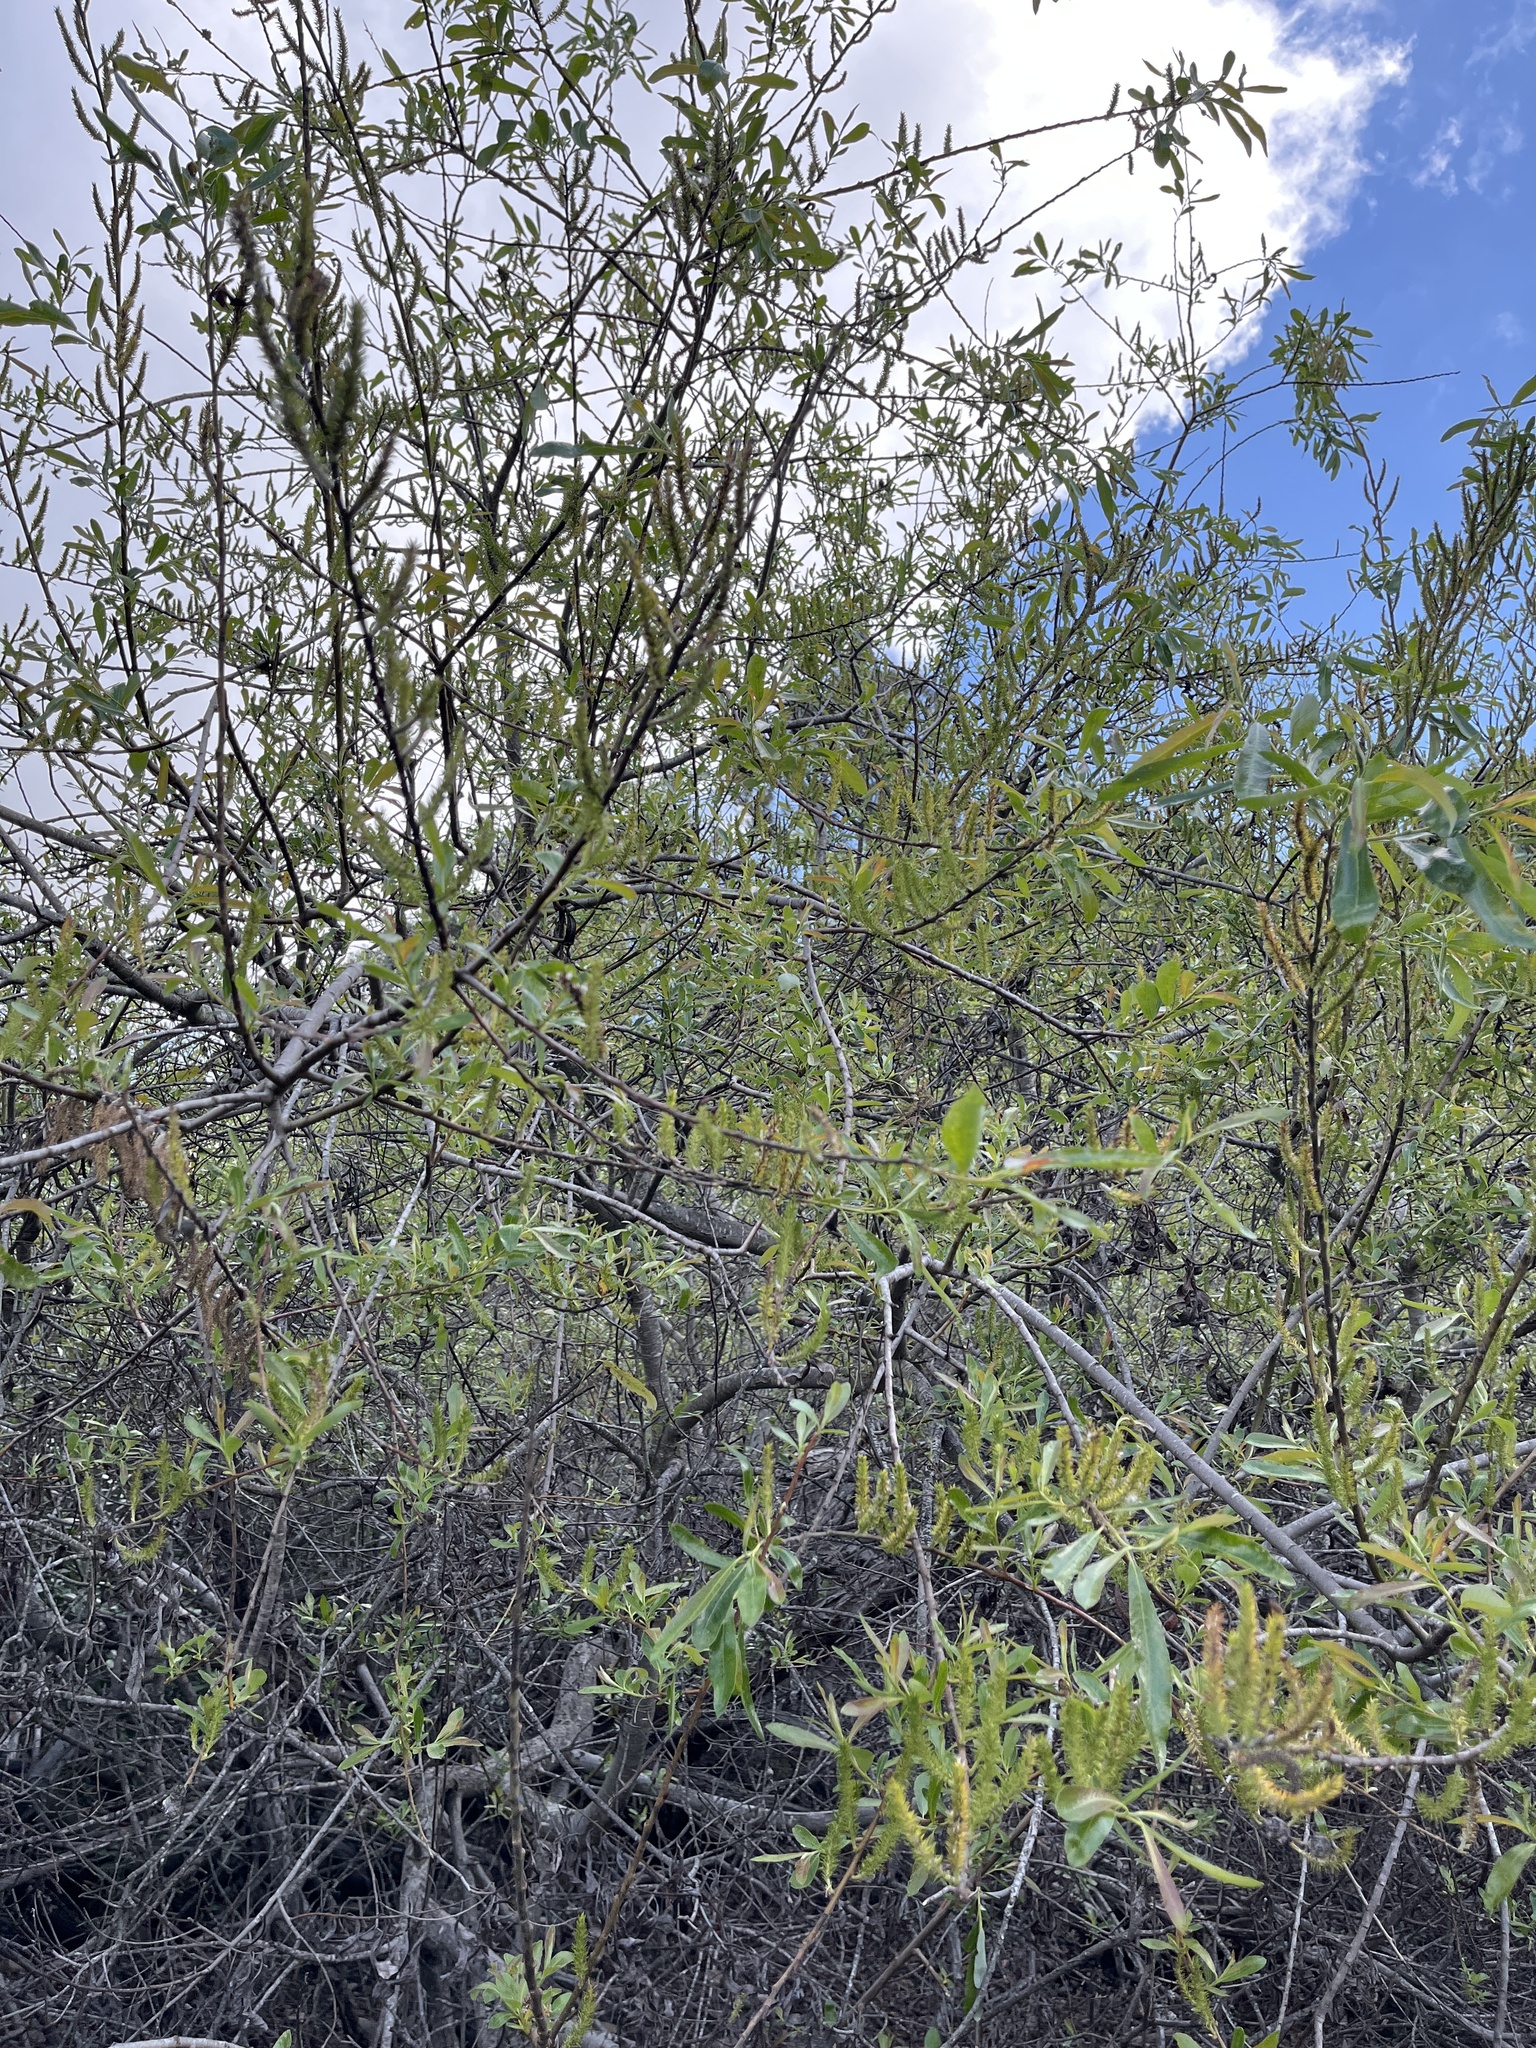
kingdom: Plantae
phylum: Tracheophyta
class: Magnoliopsida
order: Malpighiales
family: Salicaceae
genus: Salix
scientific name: Salix lasiolepis
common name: Arroyo willow
